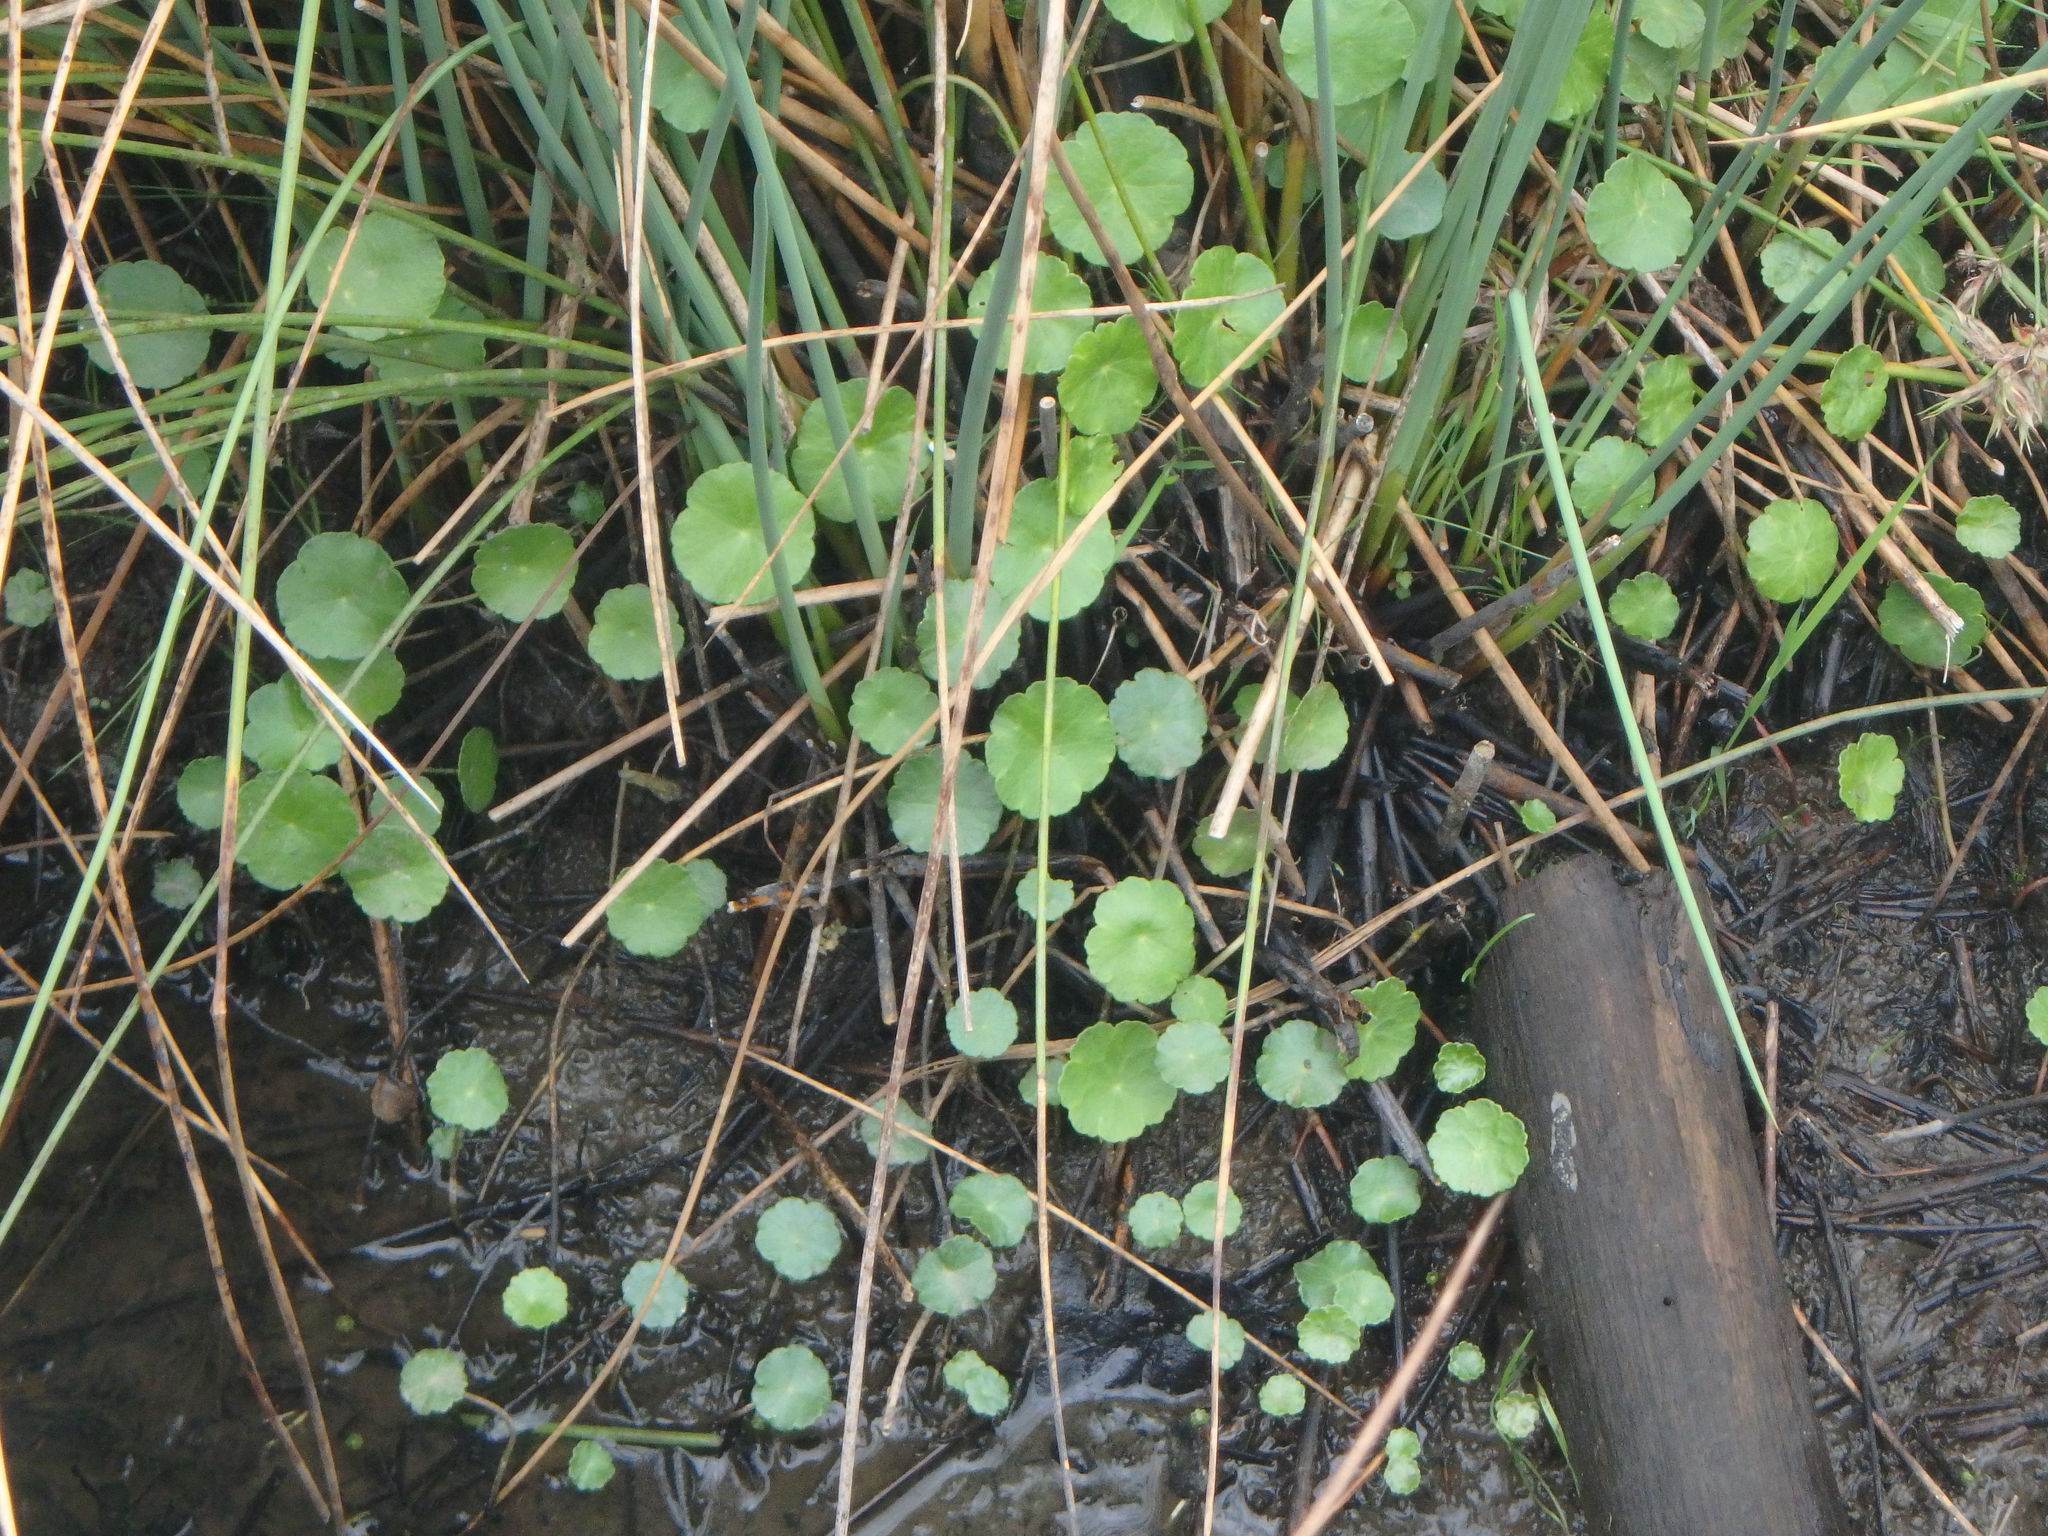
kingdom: Plantae
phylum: Tracheophyta
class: Magnoliopsida
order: Apiales
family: Araliaceae
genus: Hydrocotyle
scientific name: Hydrocotyle vulgaris
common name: Marsh pennywort
